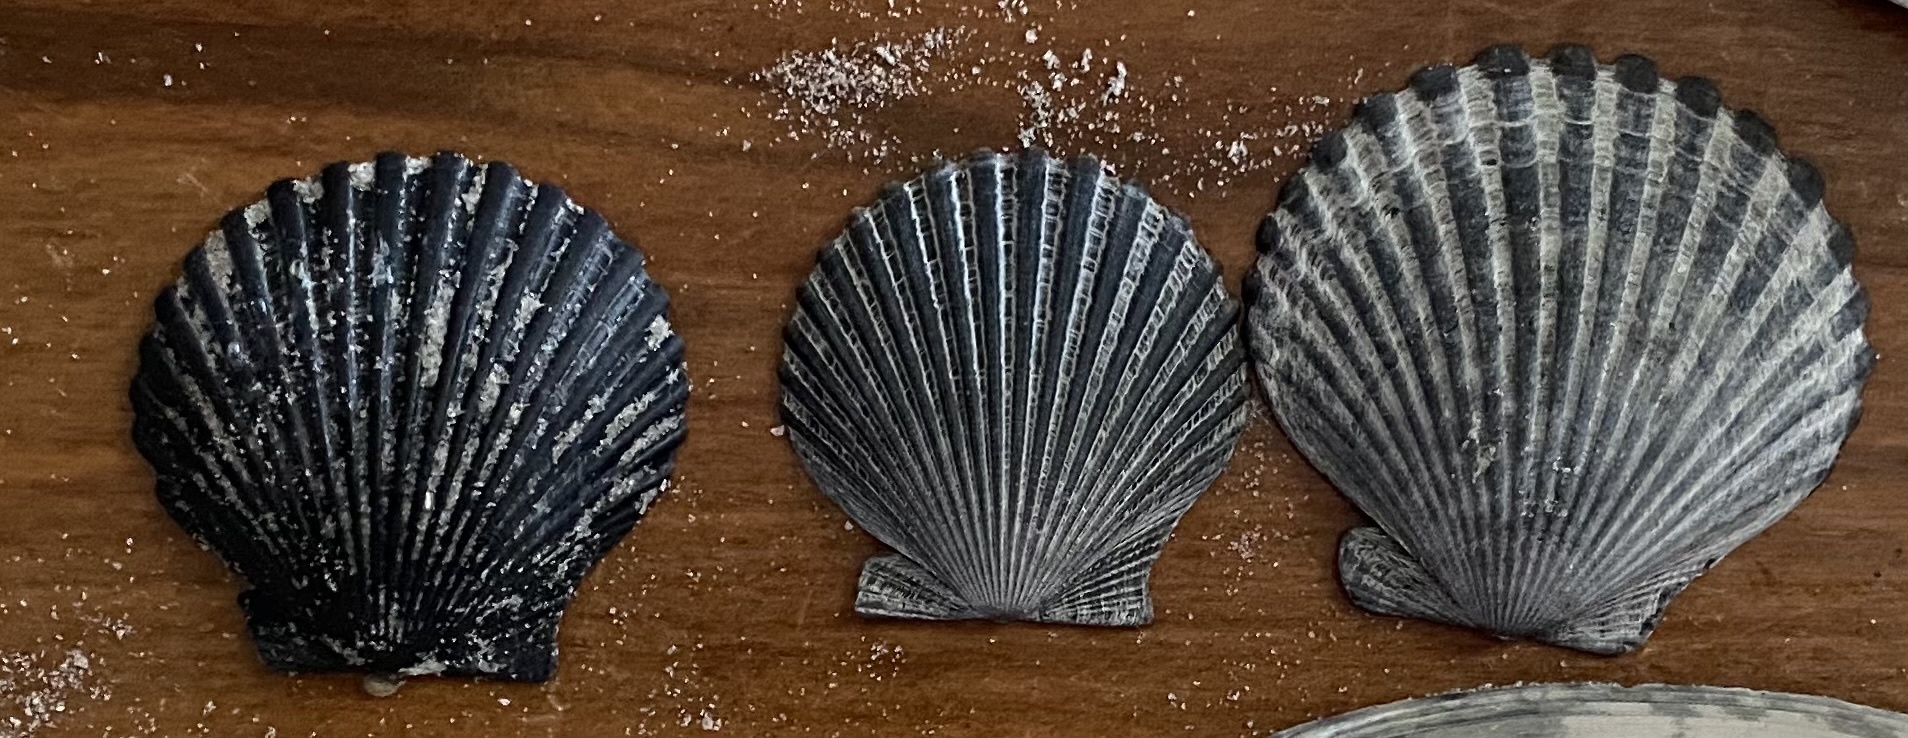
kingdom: Animalia
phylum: Mollusca
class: Bivalvia
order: Pectinida
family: Pectinidae
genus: Argopecten
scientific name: Argopecten irradians
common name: Atlantic bay scallop
